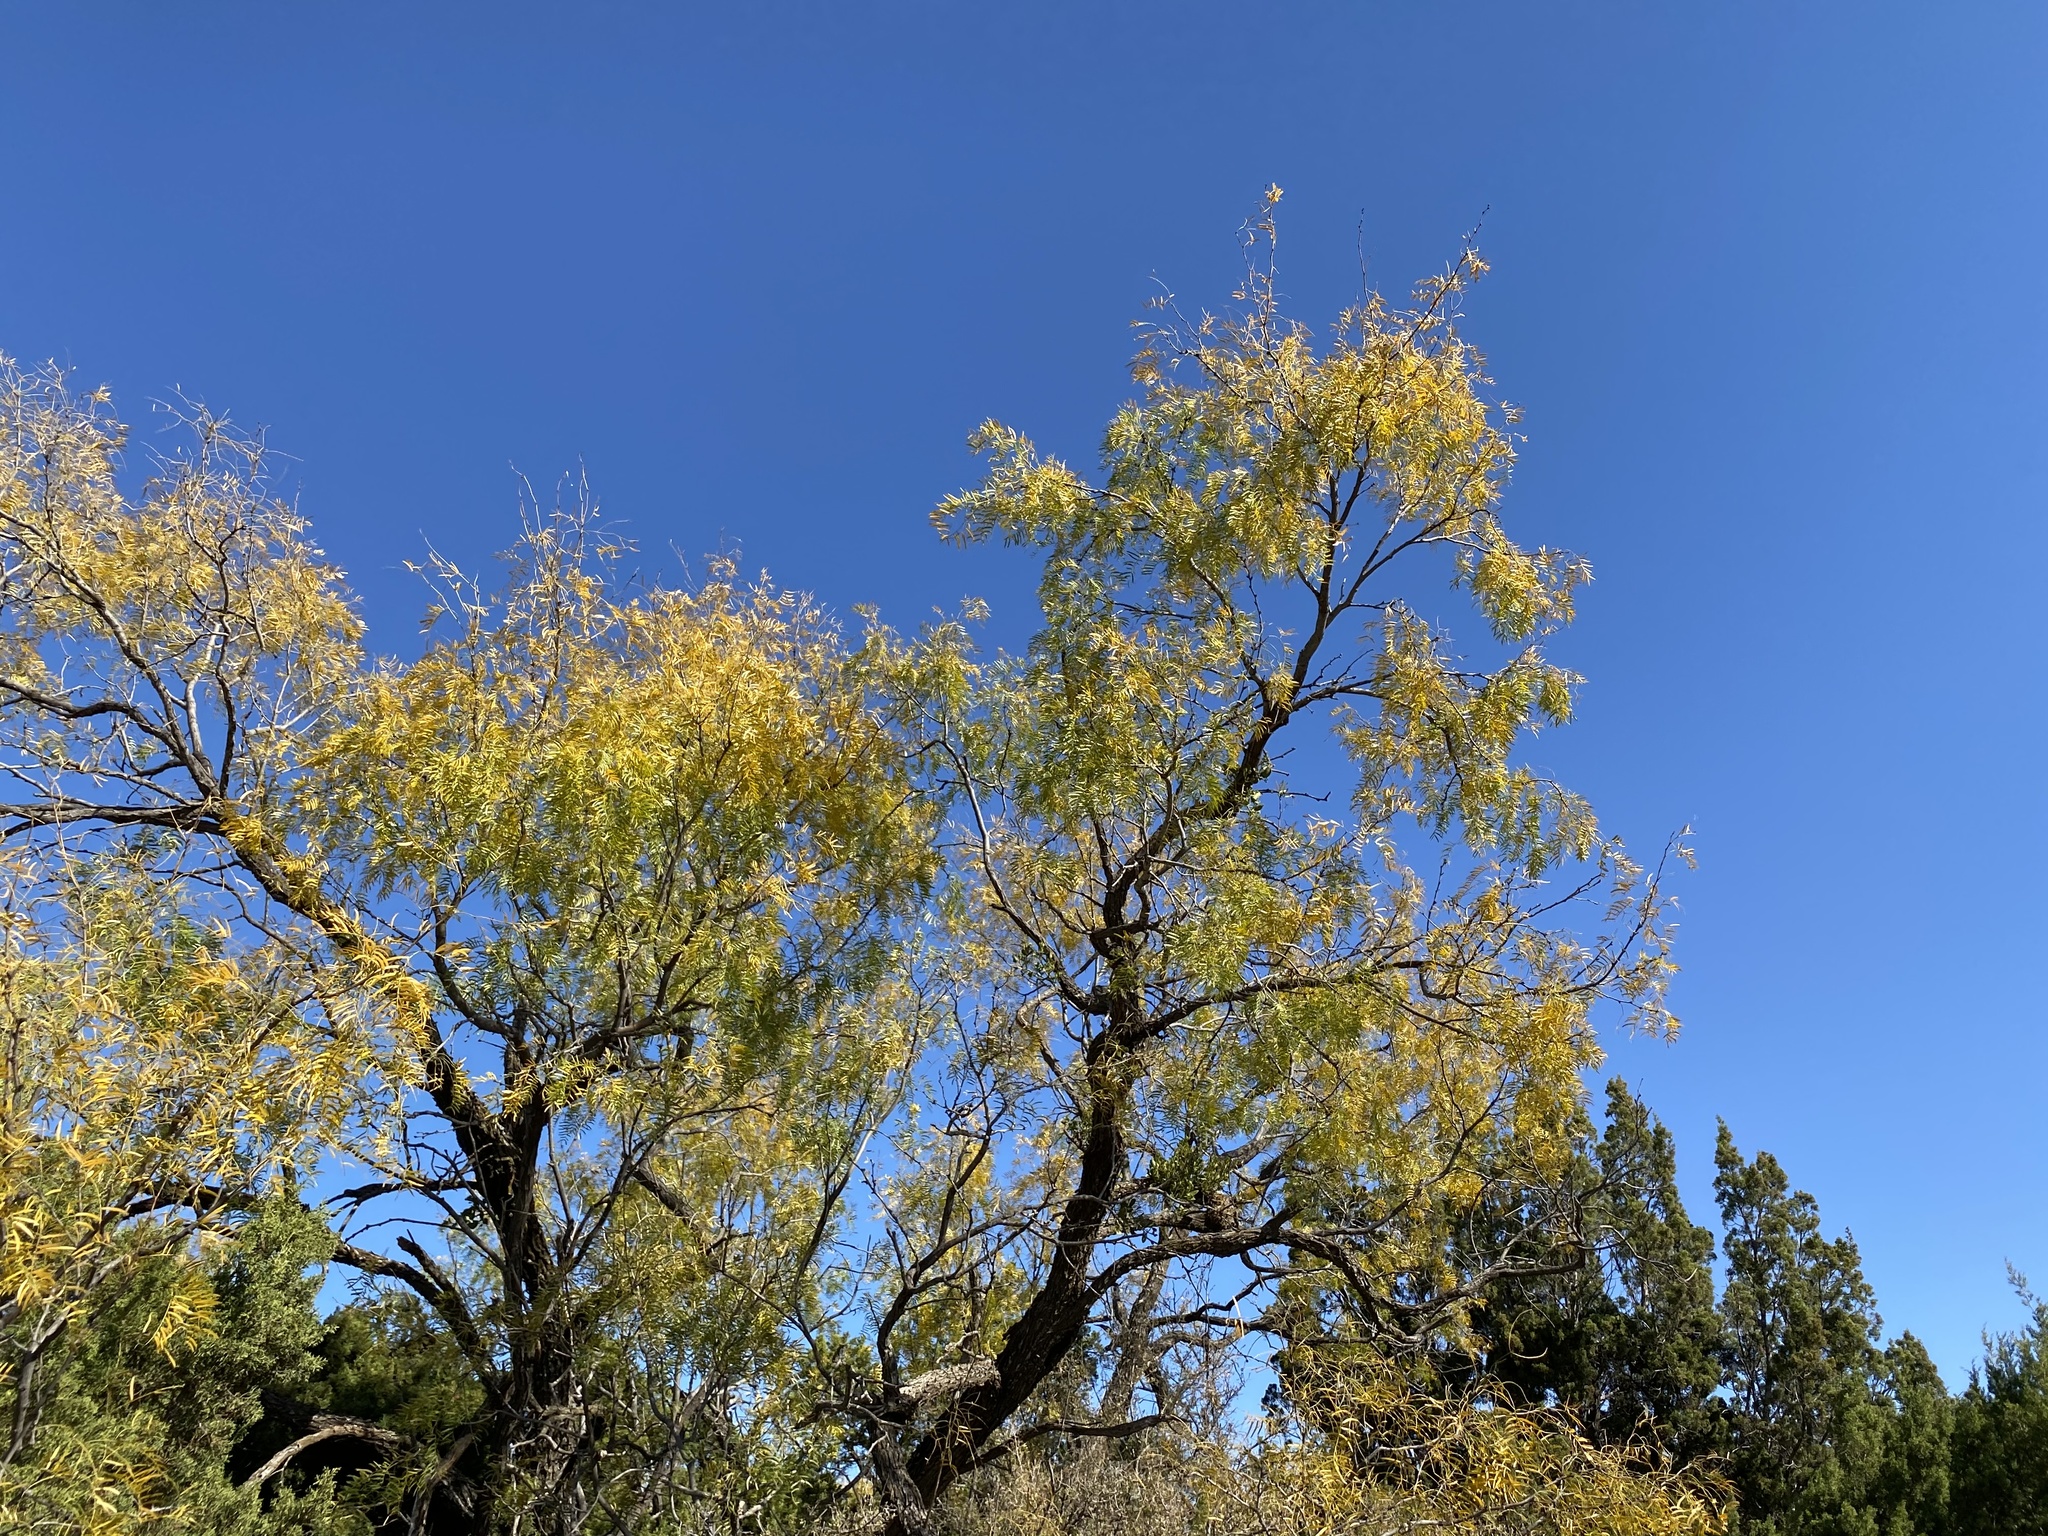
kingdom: Plantae
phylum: Tracheophyta
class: Magnoliopsida
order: Fabales
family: Fabaceae
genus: Prosopis
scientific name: Prosopis glandulosa
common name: Honey mesquite
